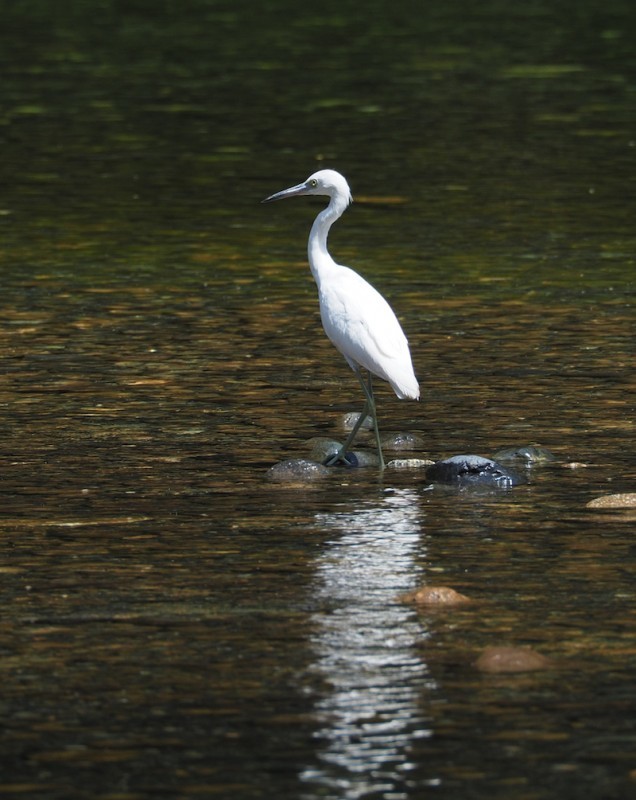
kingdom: Animalia
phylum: Chordata
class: Aves
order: Pelecaniformes
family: Ardeidae
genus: Egretta
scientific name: Egretta caerulea
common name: Little blue heron
